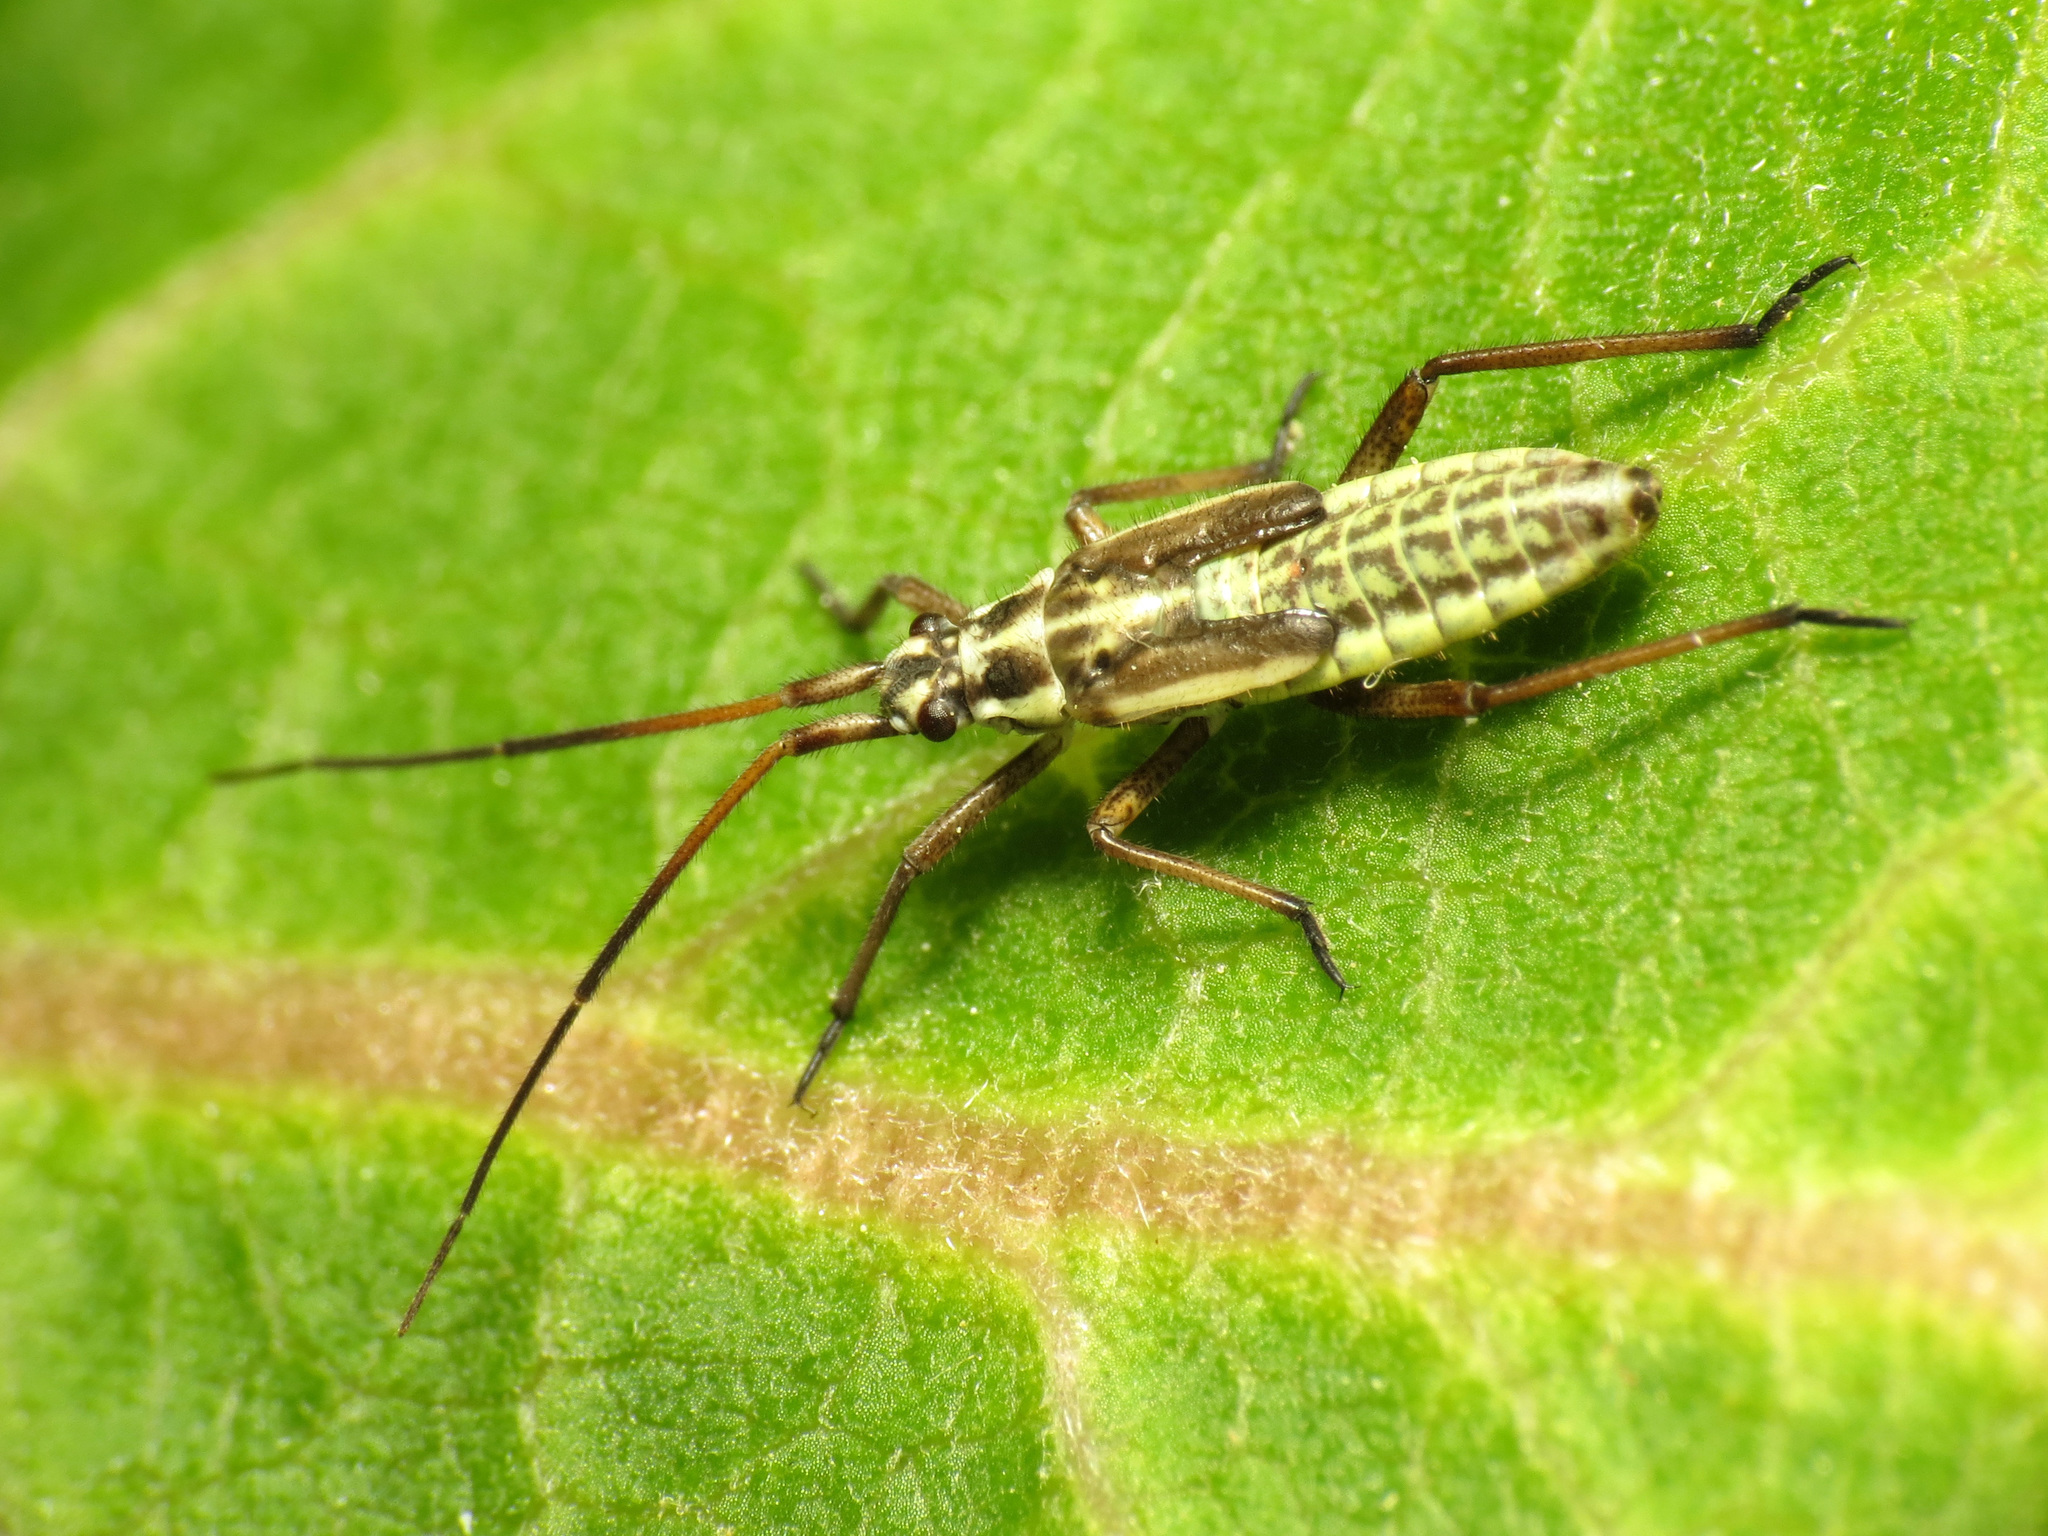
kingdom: Animalia
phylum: Arthropoda
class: Insecta
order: Hemiptera
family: Miridae
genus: Leptopterna
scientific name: Leptopterna dolabrata
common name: Meadow plant bug
